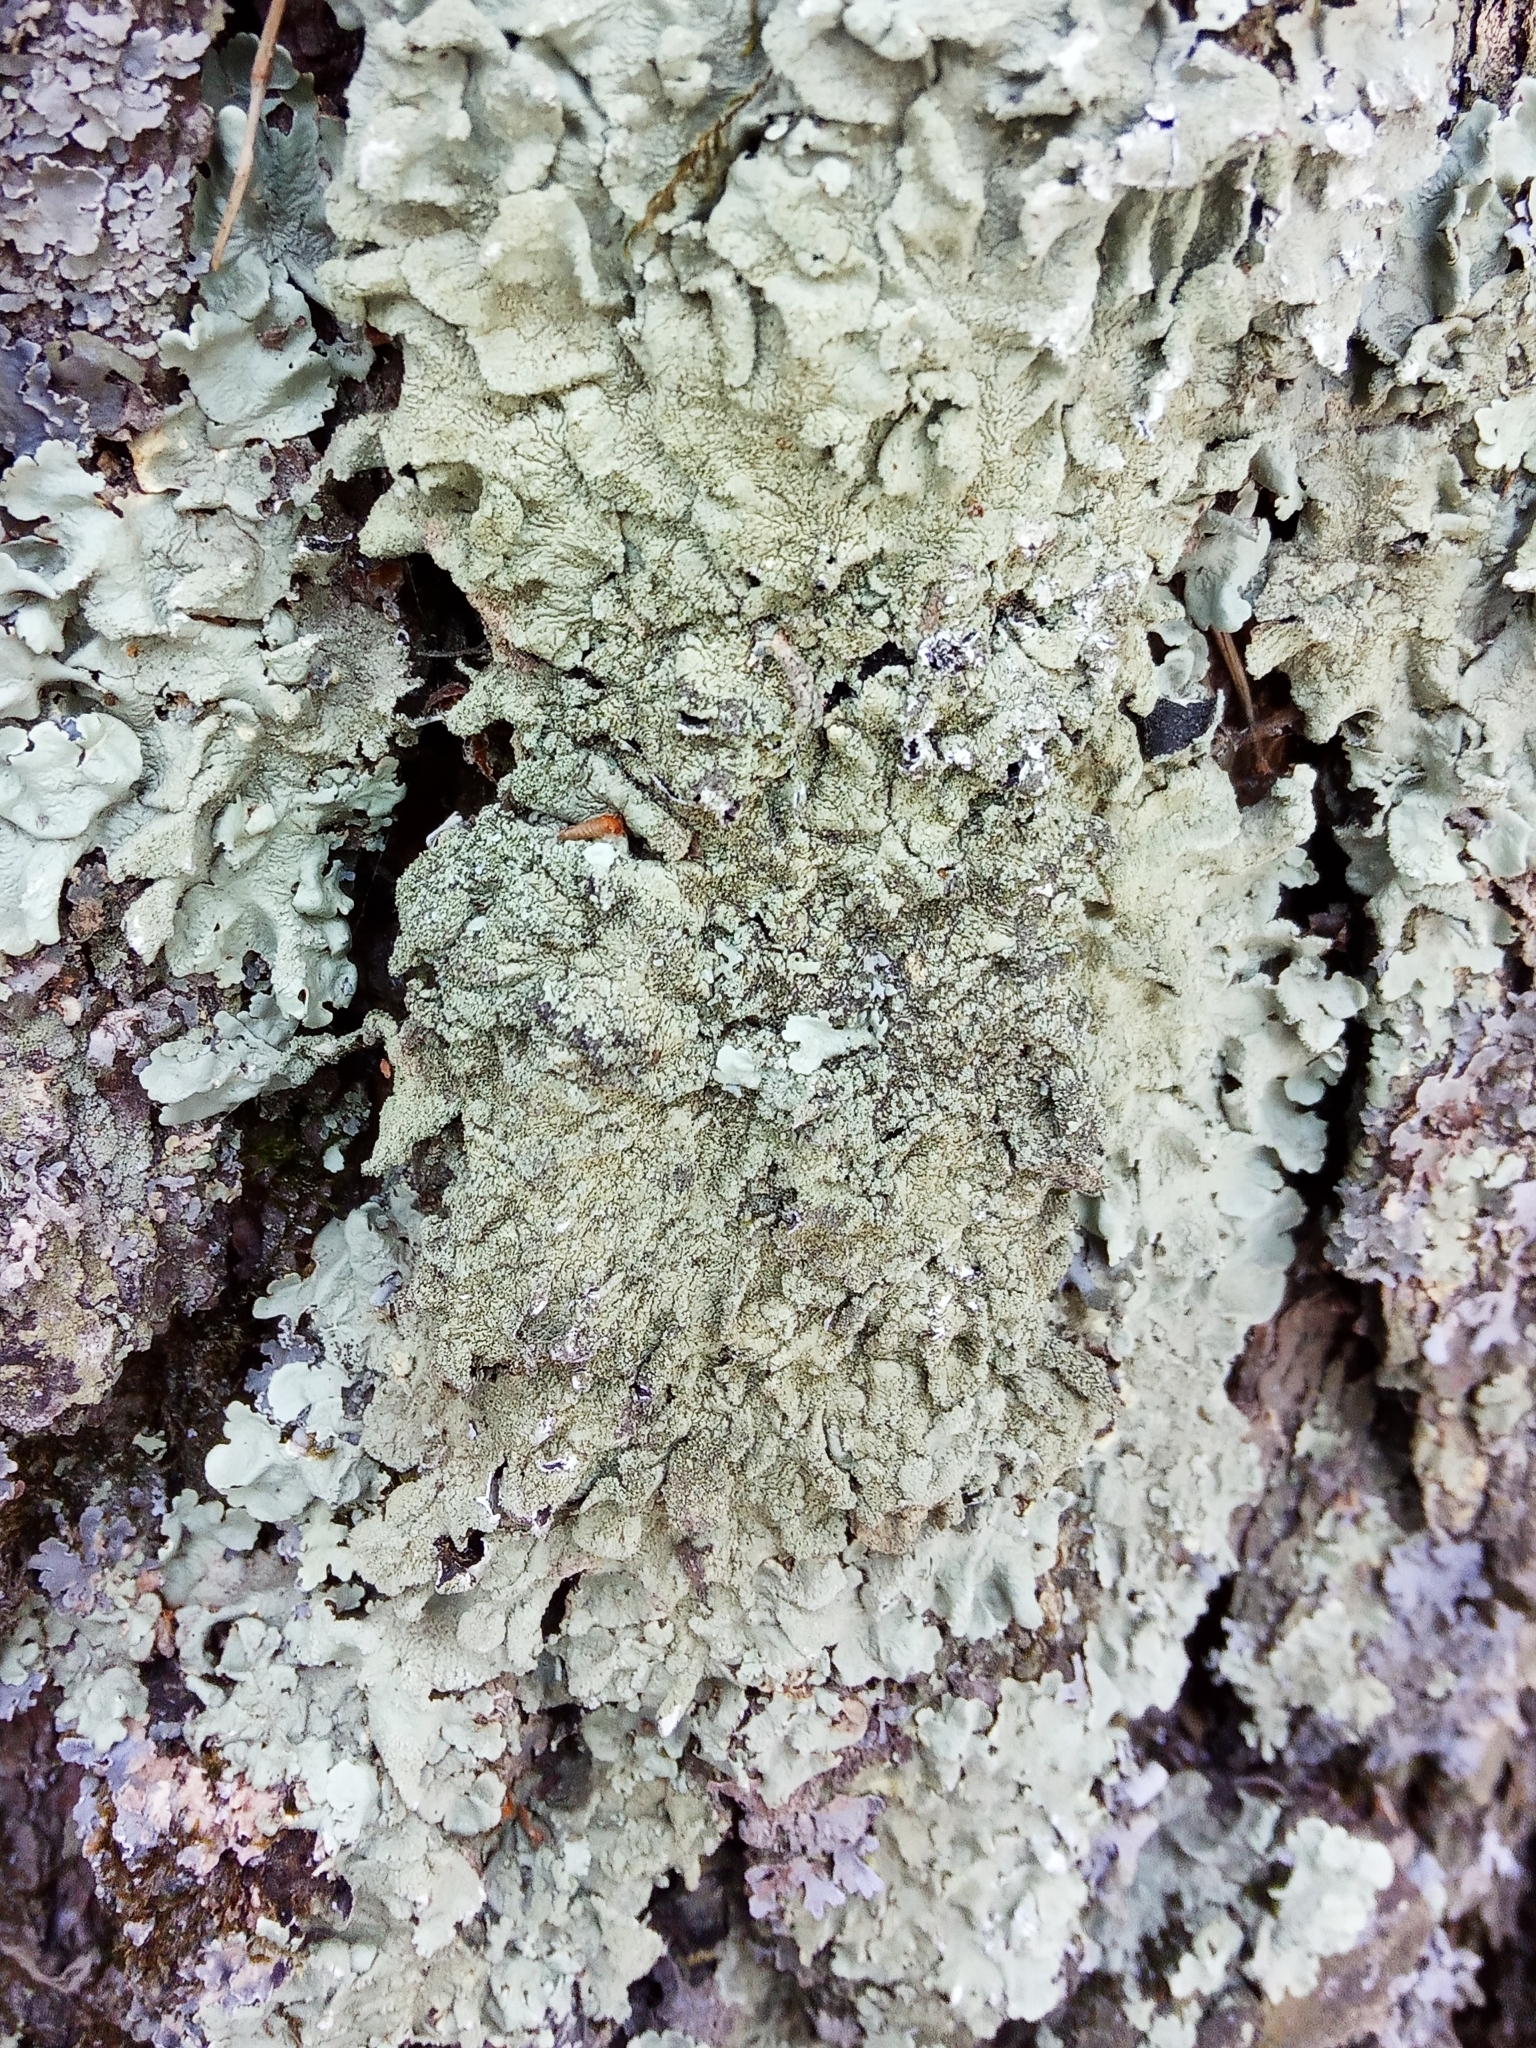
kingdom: Fungi
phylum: Ascomycota
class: Lecanoromycetes
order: Lecanorales
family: Parmeliaceae
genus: Flavoparmelia
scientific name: Flavoparmelia caperata
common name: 40-mile per hour lichen
